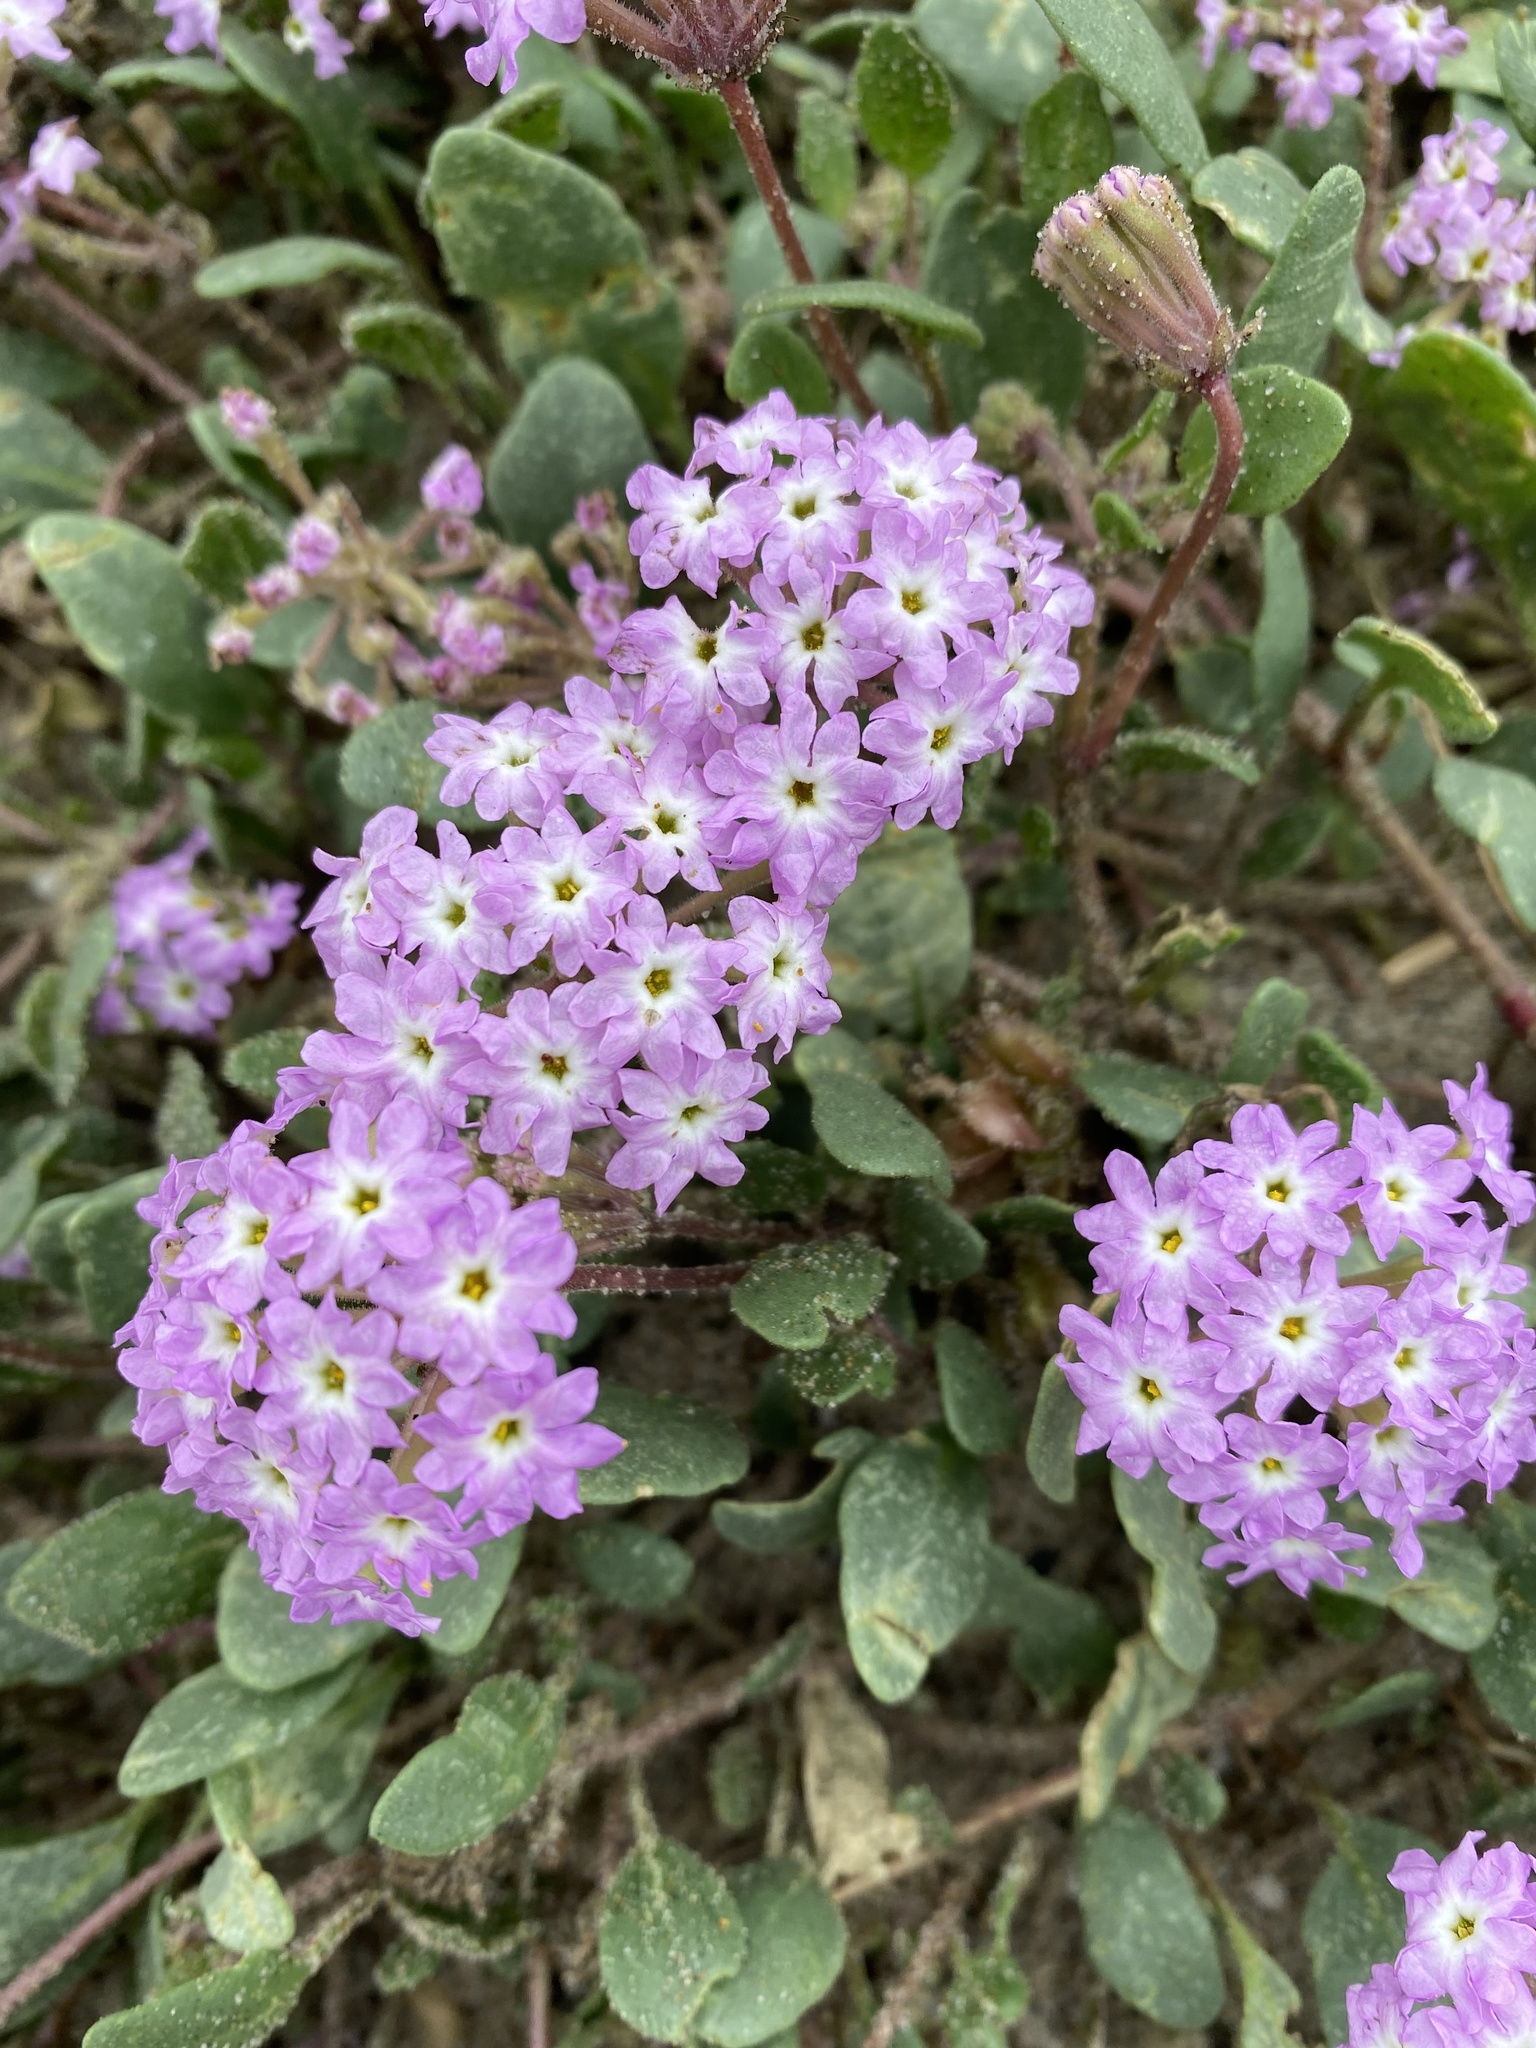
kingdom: Plantae
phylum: Tracheophyta
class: Magnoliopsida
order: Caryophyllales
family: Nyctaginaceae
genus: Abronia
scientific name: Abronia umbellata
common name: Sand-verbena
